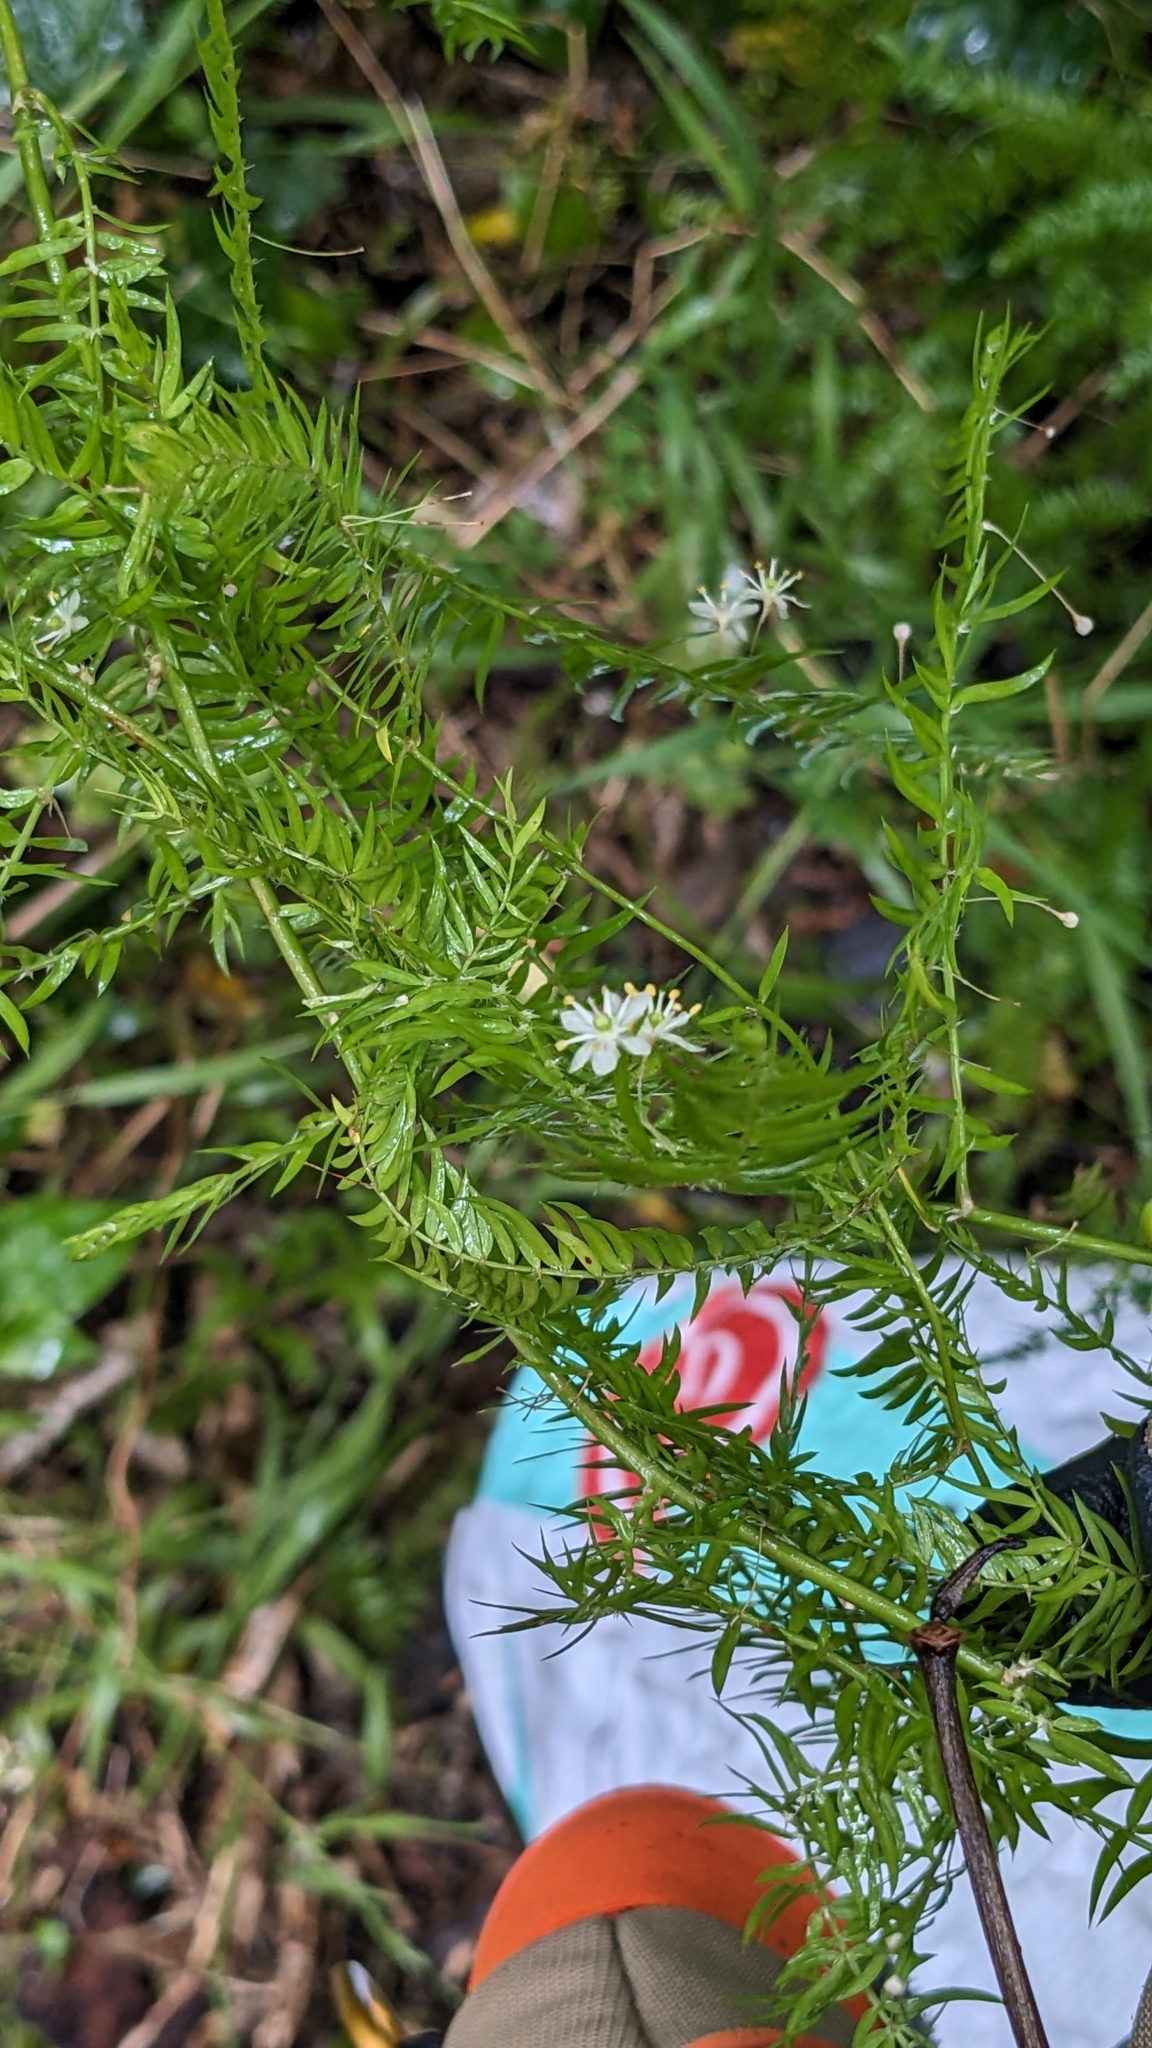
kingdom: Plantae
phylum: Tracheophyta
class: Liliopsida
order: Asparagales
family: Asparagaceae
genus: Asparagus
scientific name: Asparagus scandens
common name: Asparagus-fern
